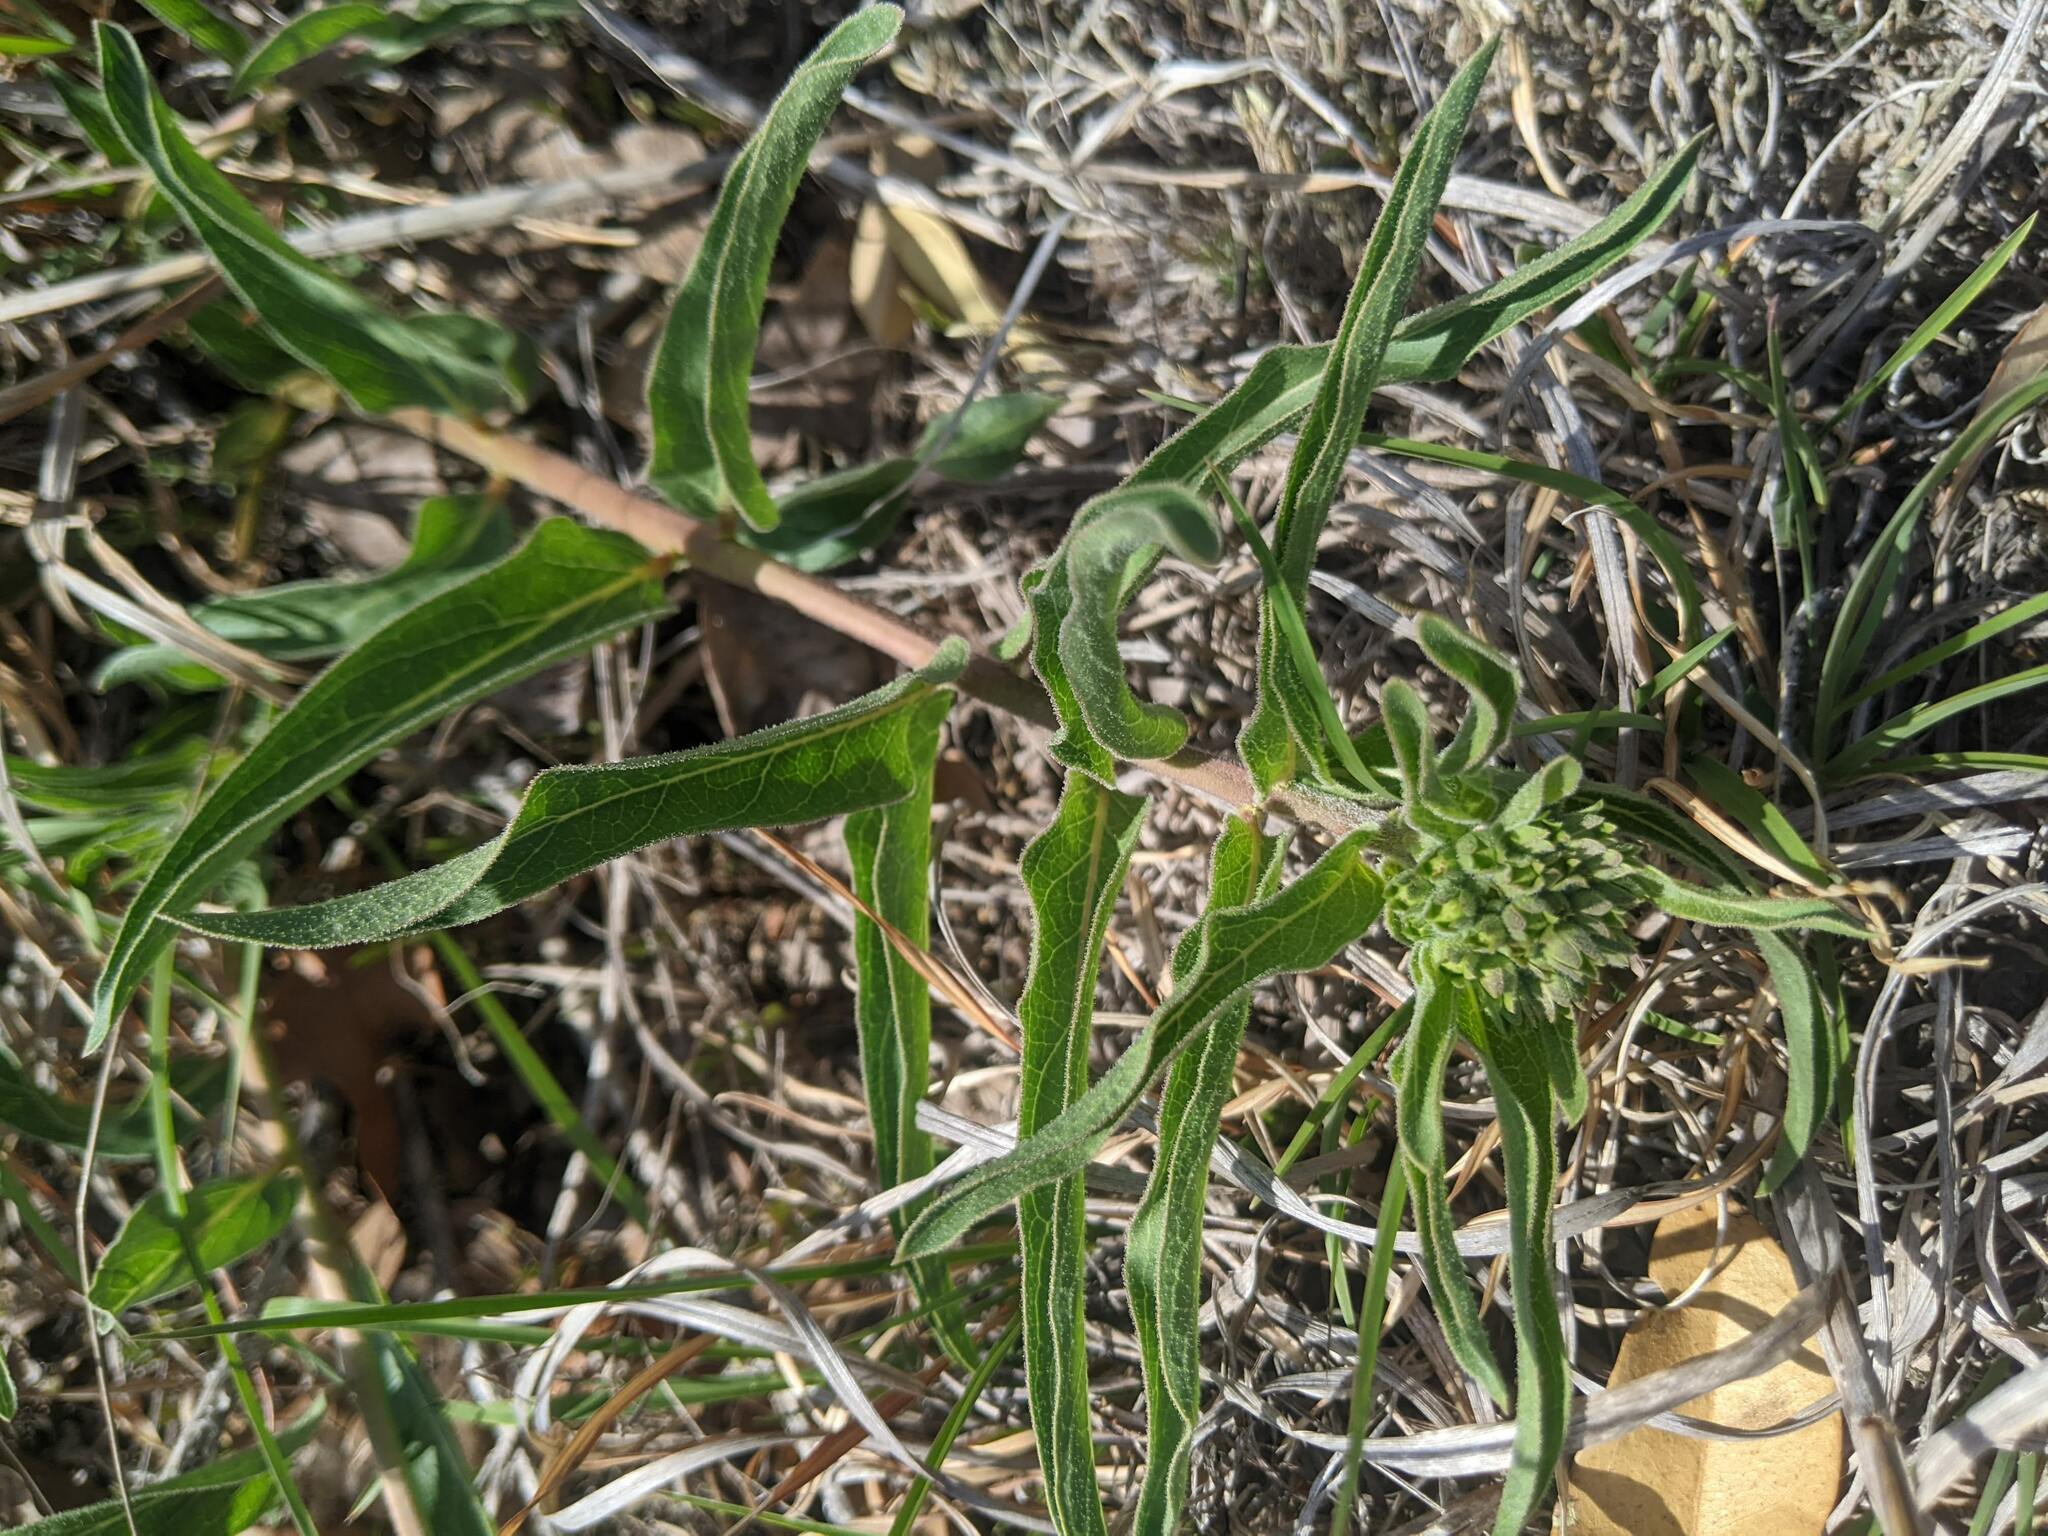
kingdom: Plantae
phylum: Tracheophyta
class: Magnoliopsida
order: Gentianales
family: Apocynaceae
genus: Asclepias
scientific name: Asclepias asperula
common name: Antelope horns
